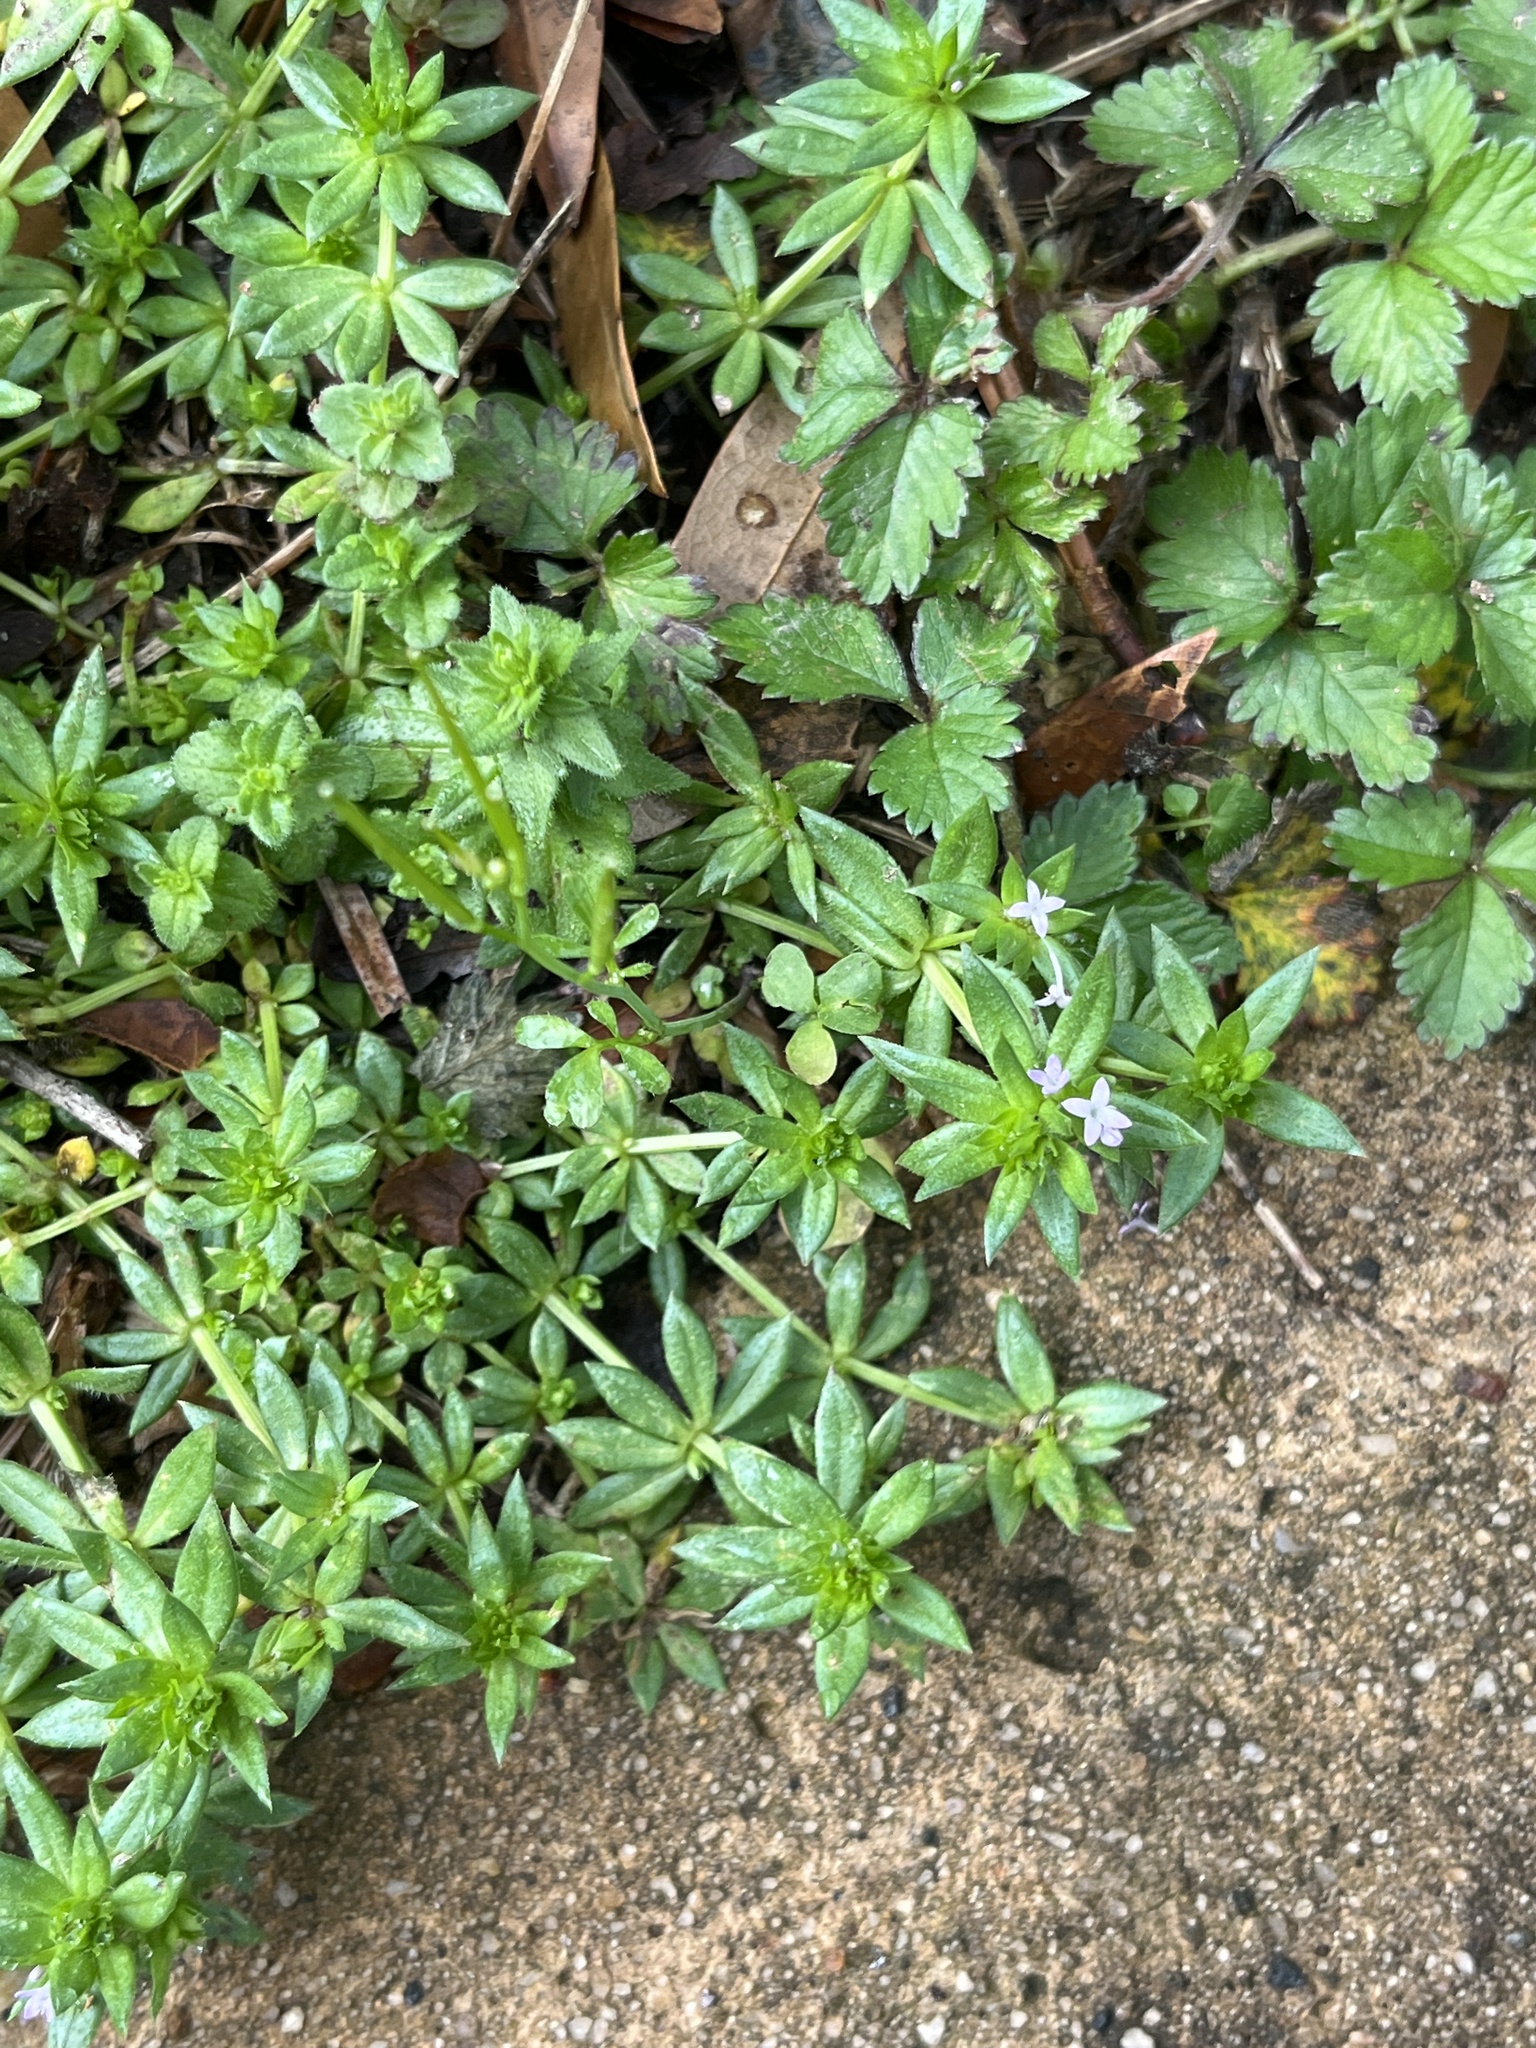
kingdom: Plantae
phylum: Tracheophyta
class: Magnoliopsida
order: Gentianales
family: Rubiaceae
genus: Sherardia
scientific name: Sherardia arvensis
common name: Field madder
